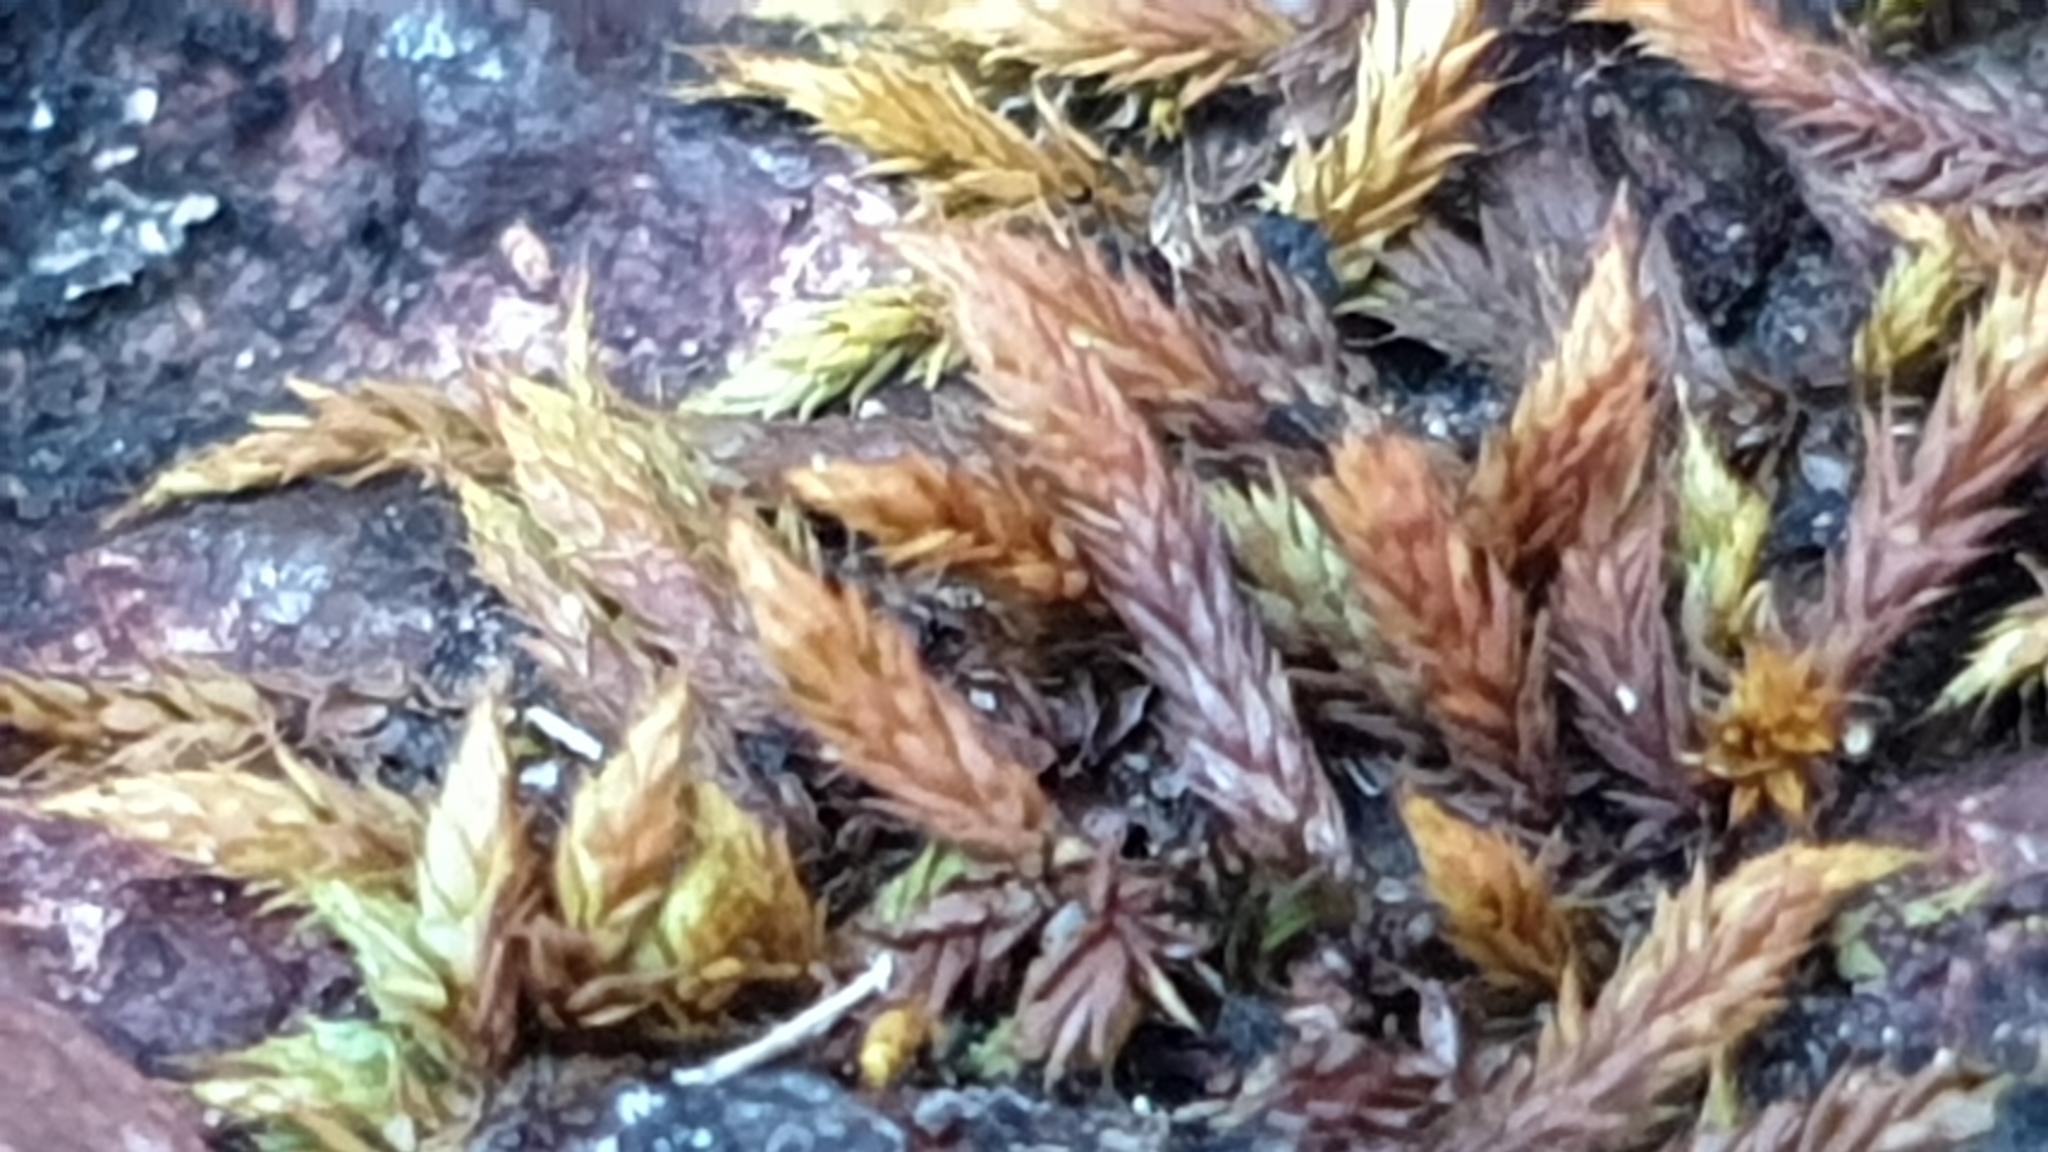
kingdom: Plantae
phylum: Bryophyta
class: Bryopsida
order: Hedwigiales
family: Hedwigiaceae
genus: Rhacocarpus
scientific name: Rhacocarpus purpurascens
